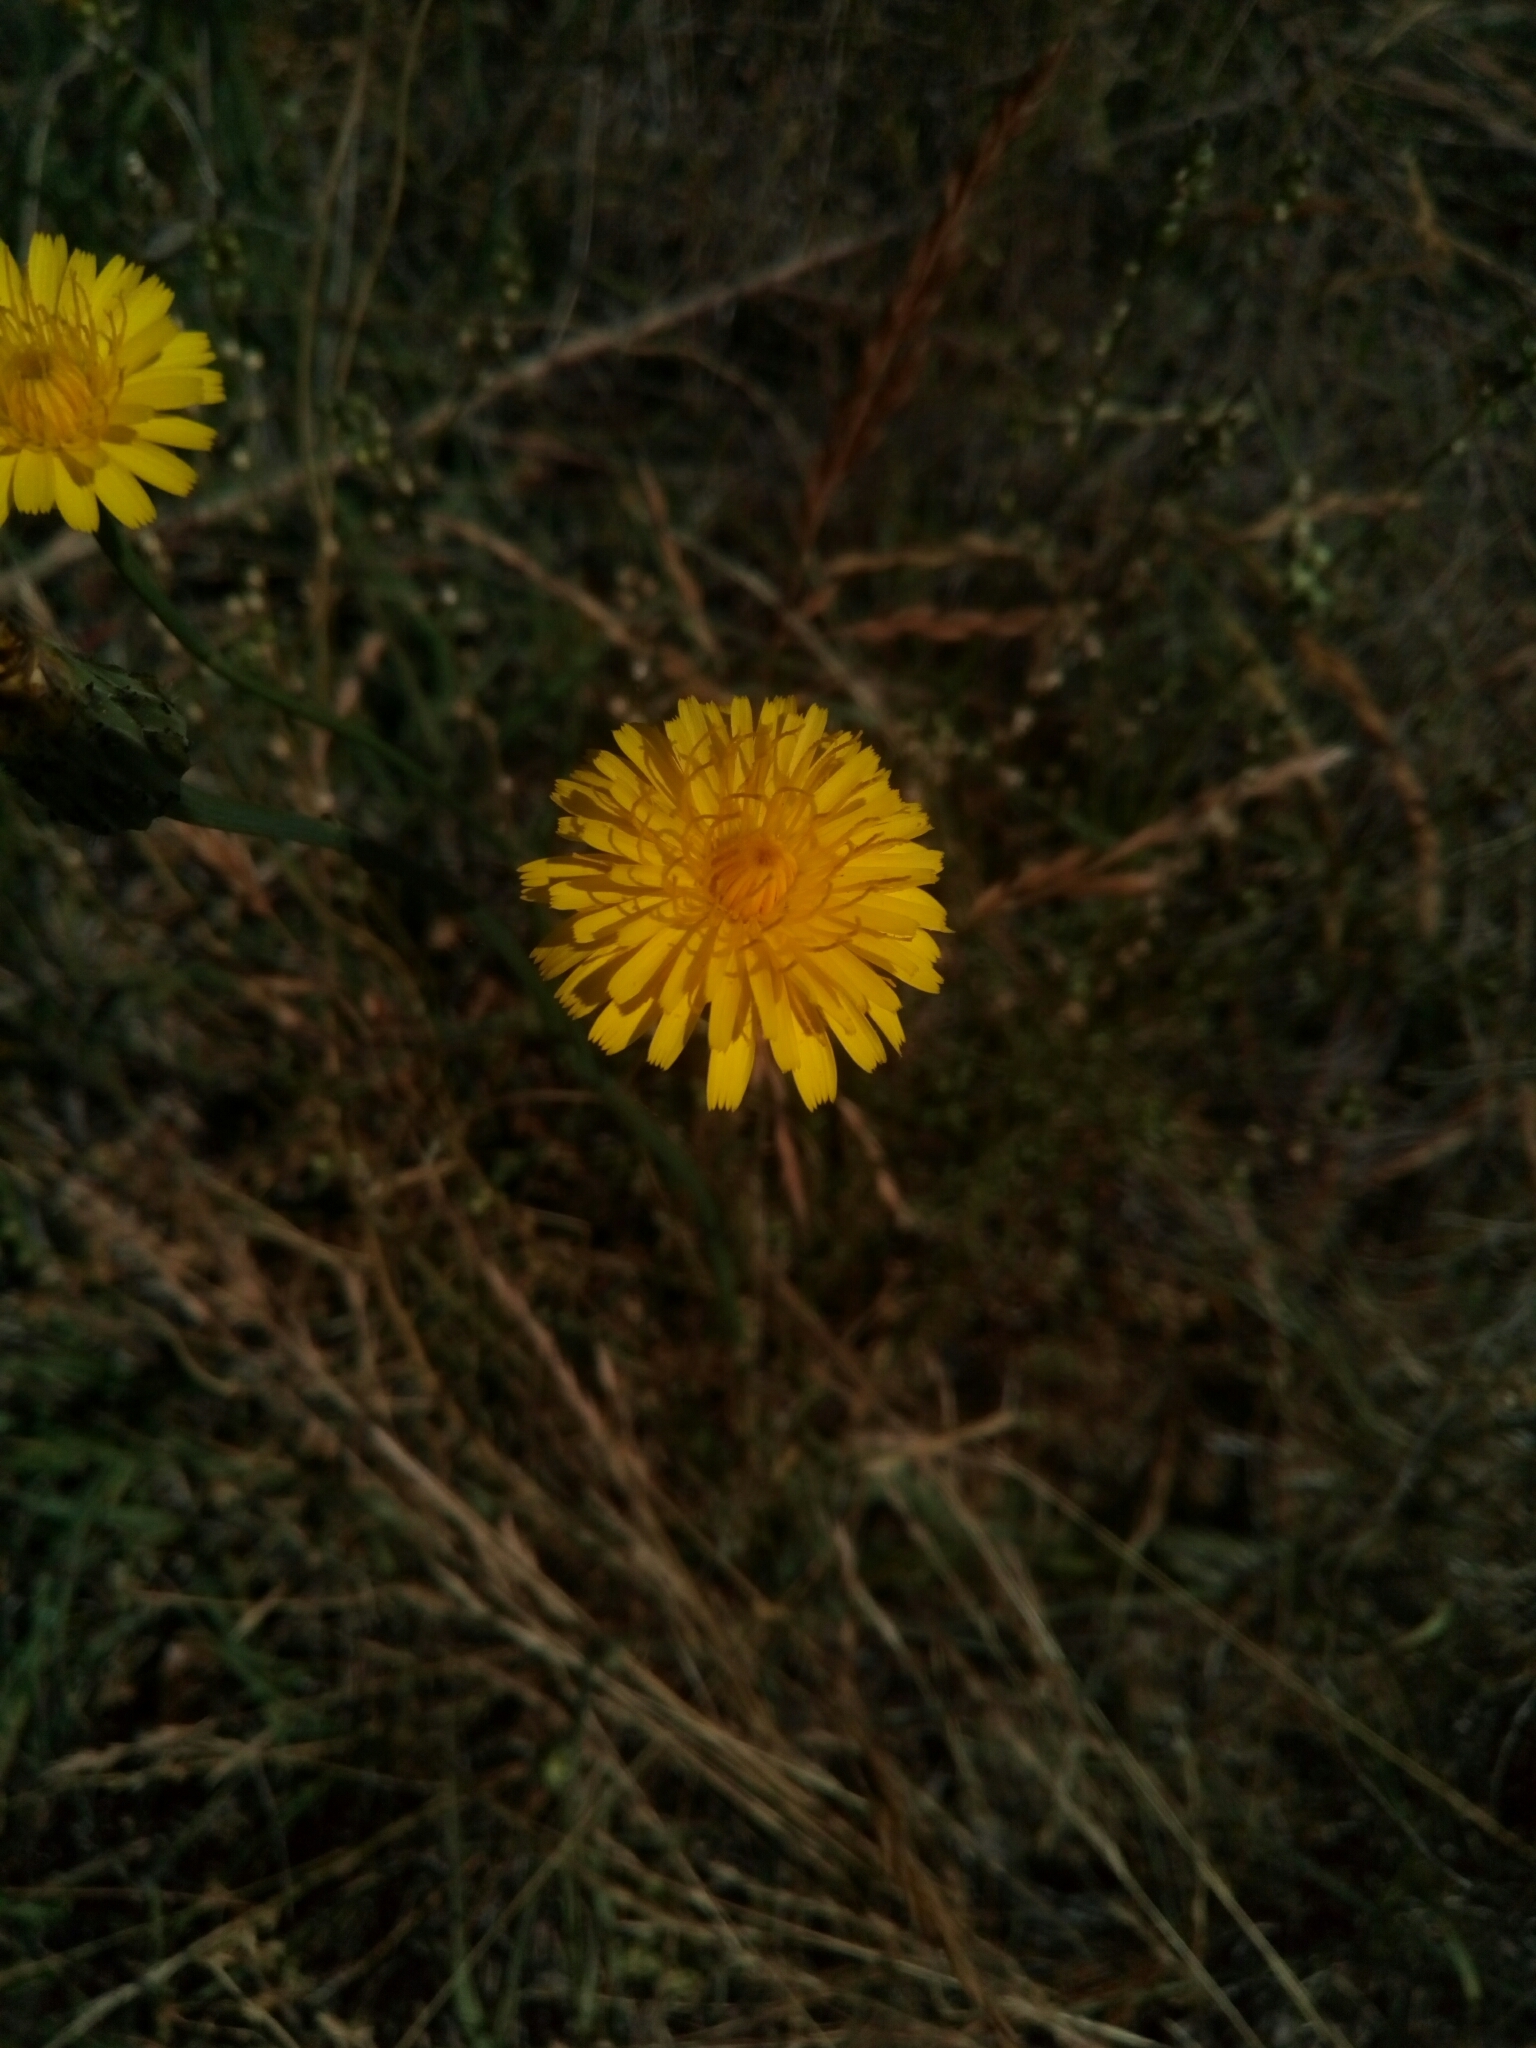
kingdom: Plantae
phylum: Tracheophyta
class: Magnoliopsida
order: Asterales
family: Asteraceae
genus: Taraxacum
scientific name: Taraxacum officinale
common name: Common dandelion
